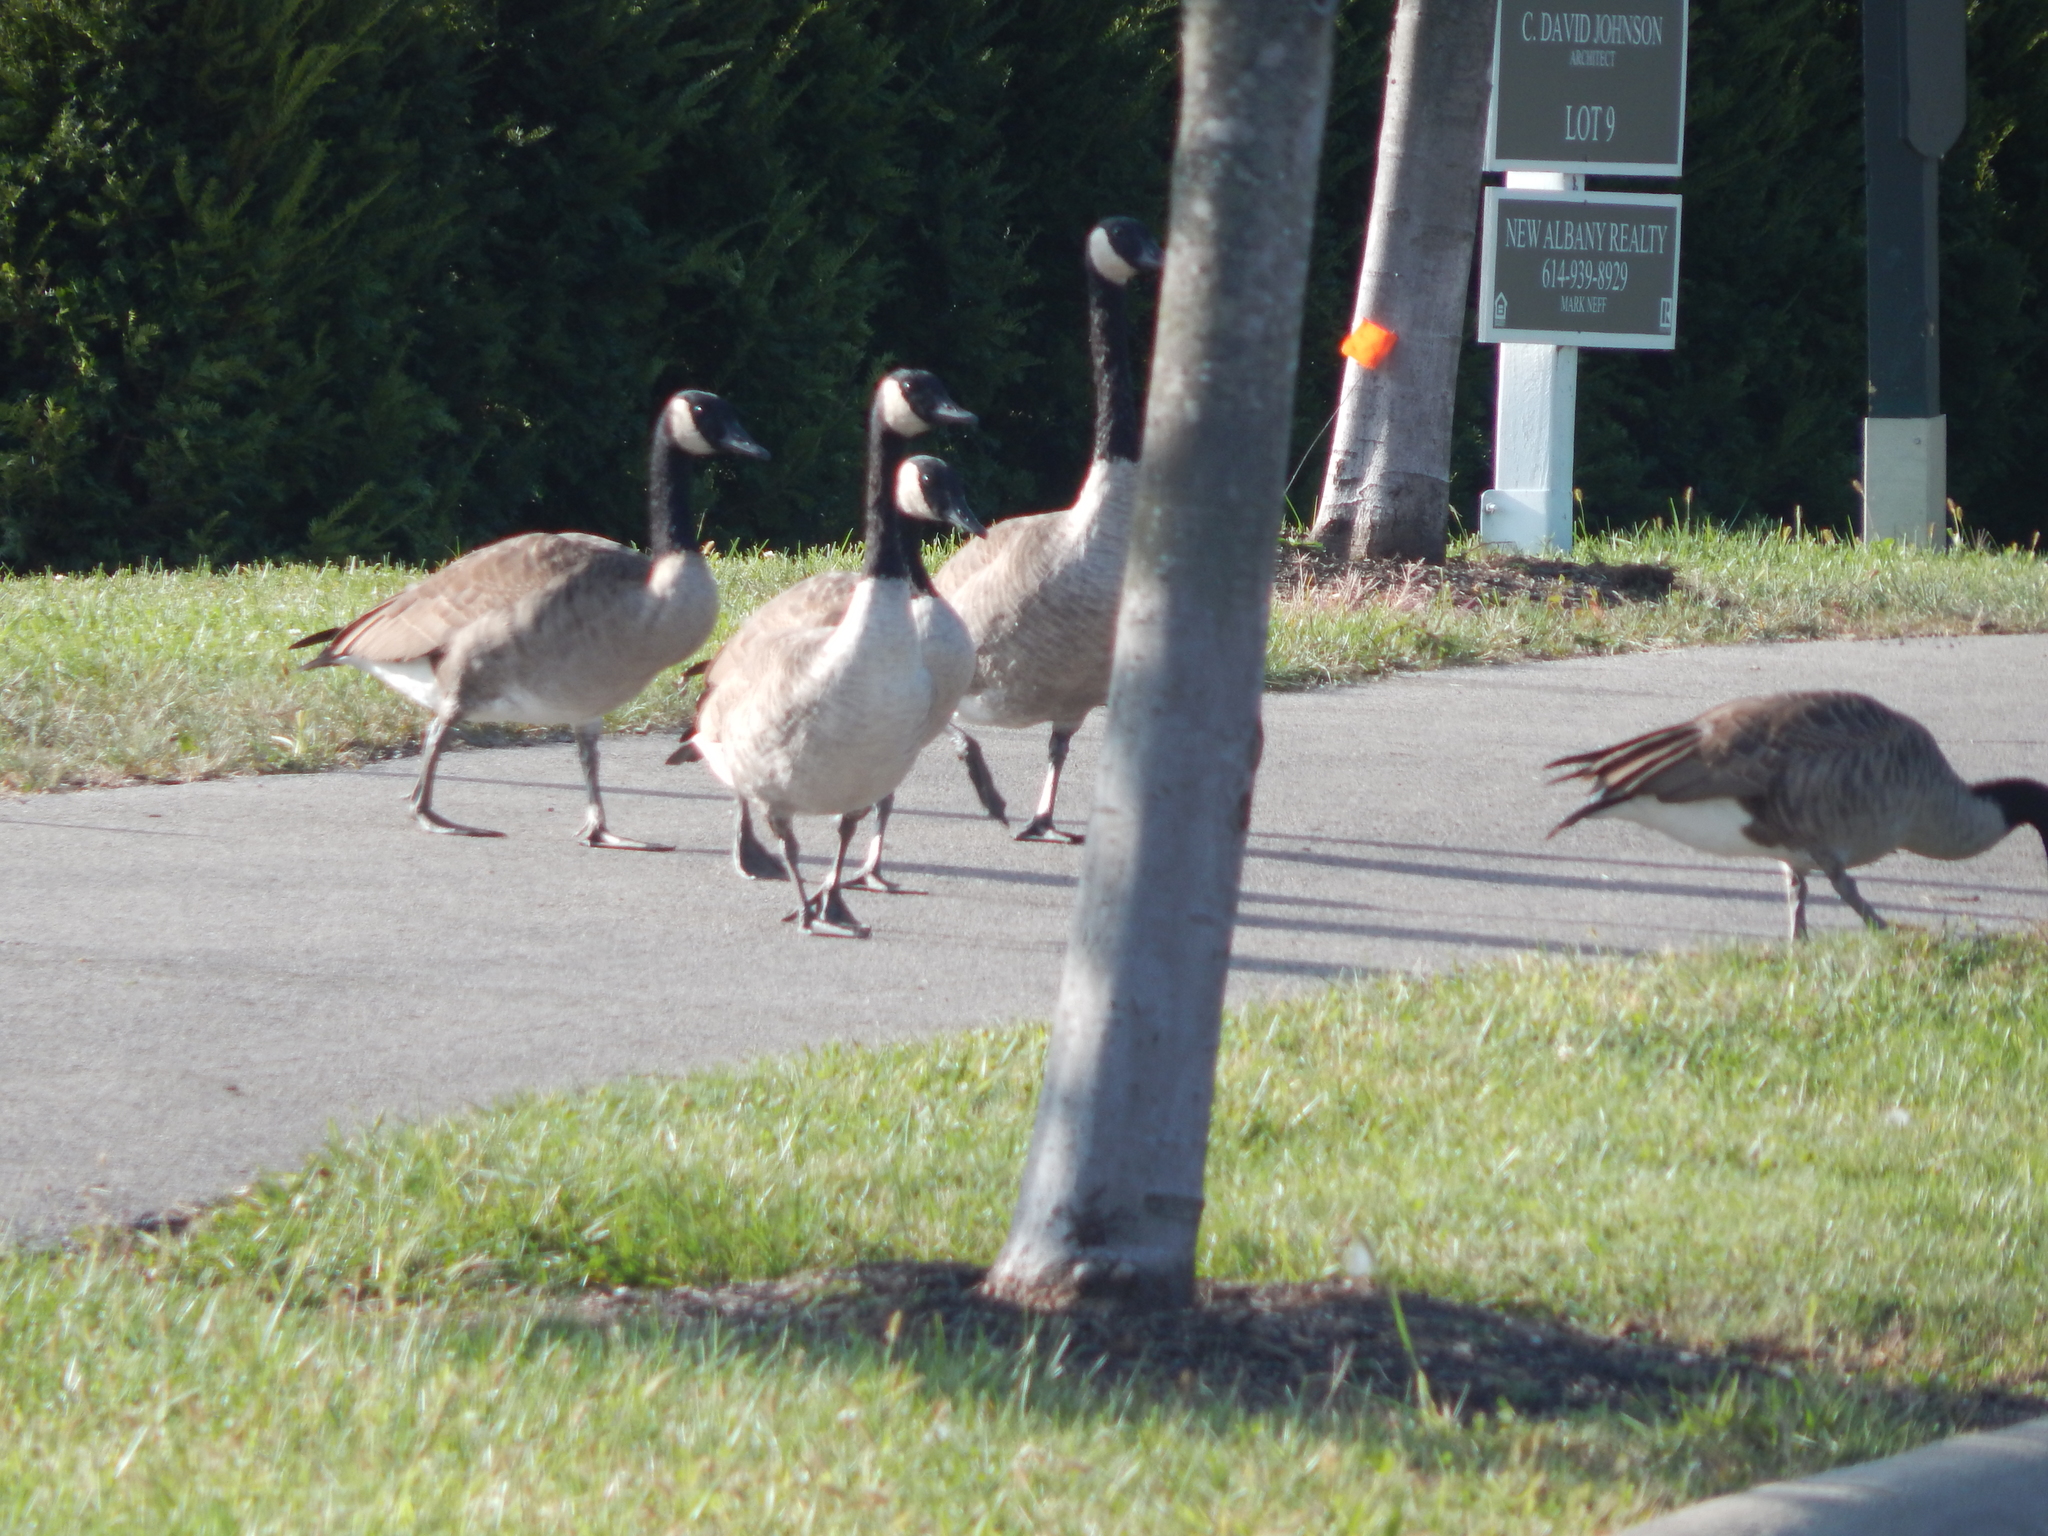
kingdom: Animalia
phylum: Chordata
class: Aves
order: Anseriformes
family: Anatidae
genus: Branta
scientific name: Branta canadensis
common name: Canada goose
